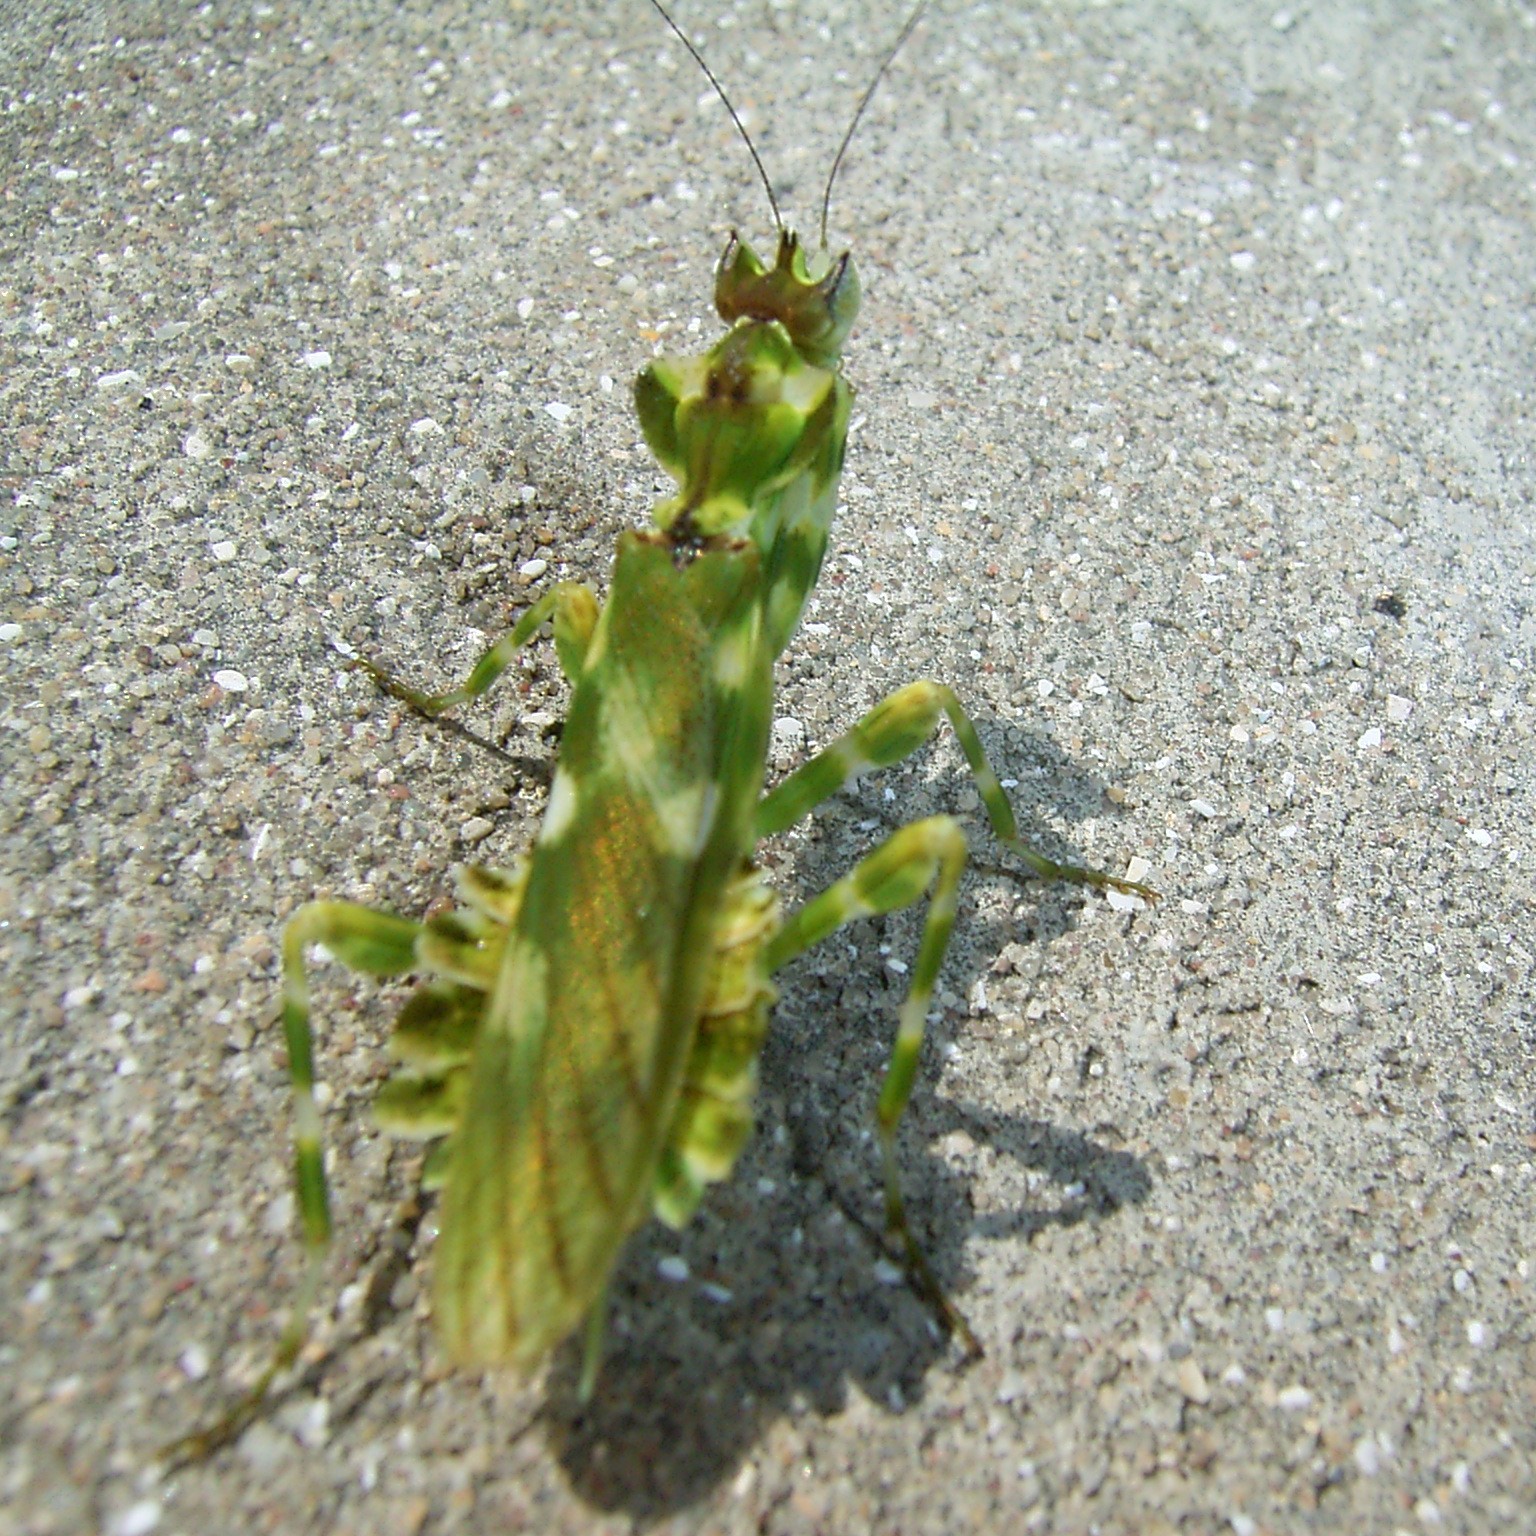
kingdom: Animalia
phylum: Arthropoda
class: Insecta
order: Mantodea
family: Galinthiadidae
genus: Harpagomantis
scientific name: Harpagomantis tricolor
